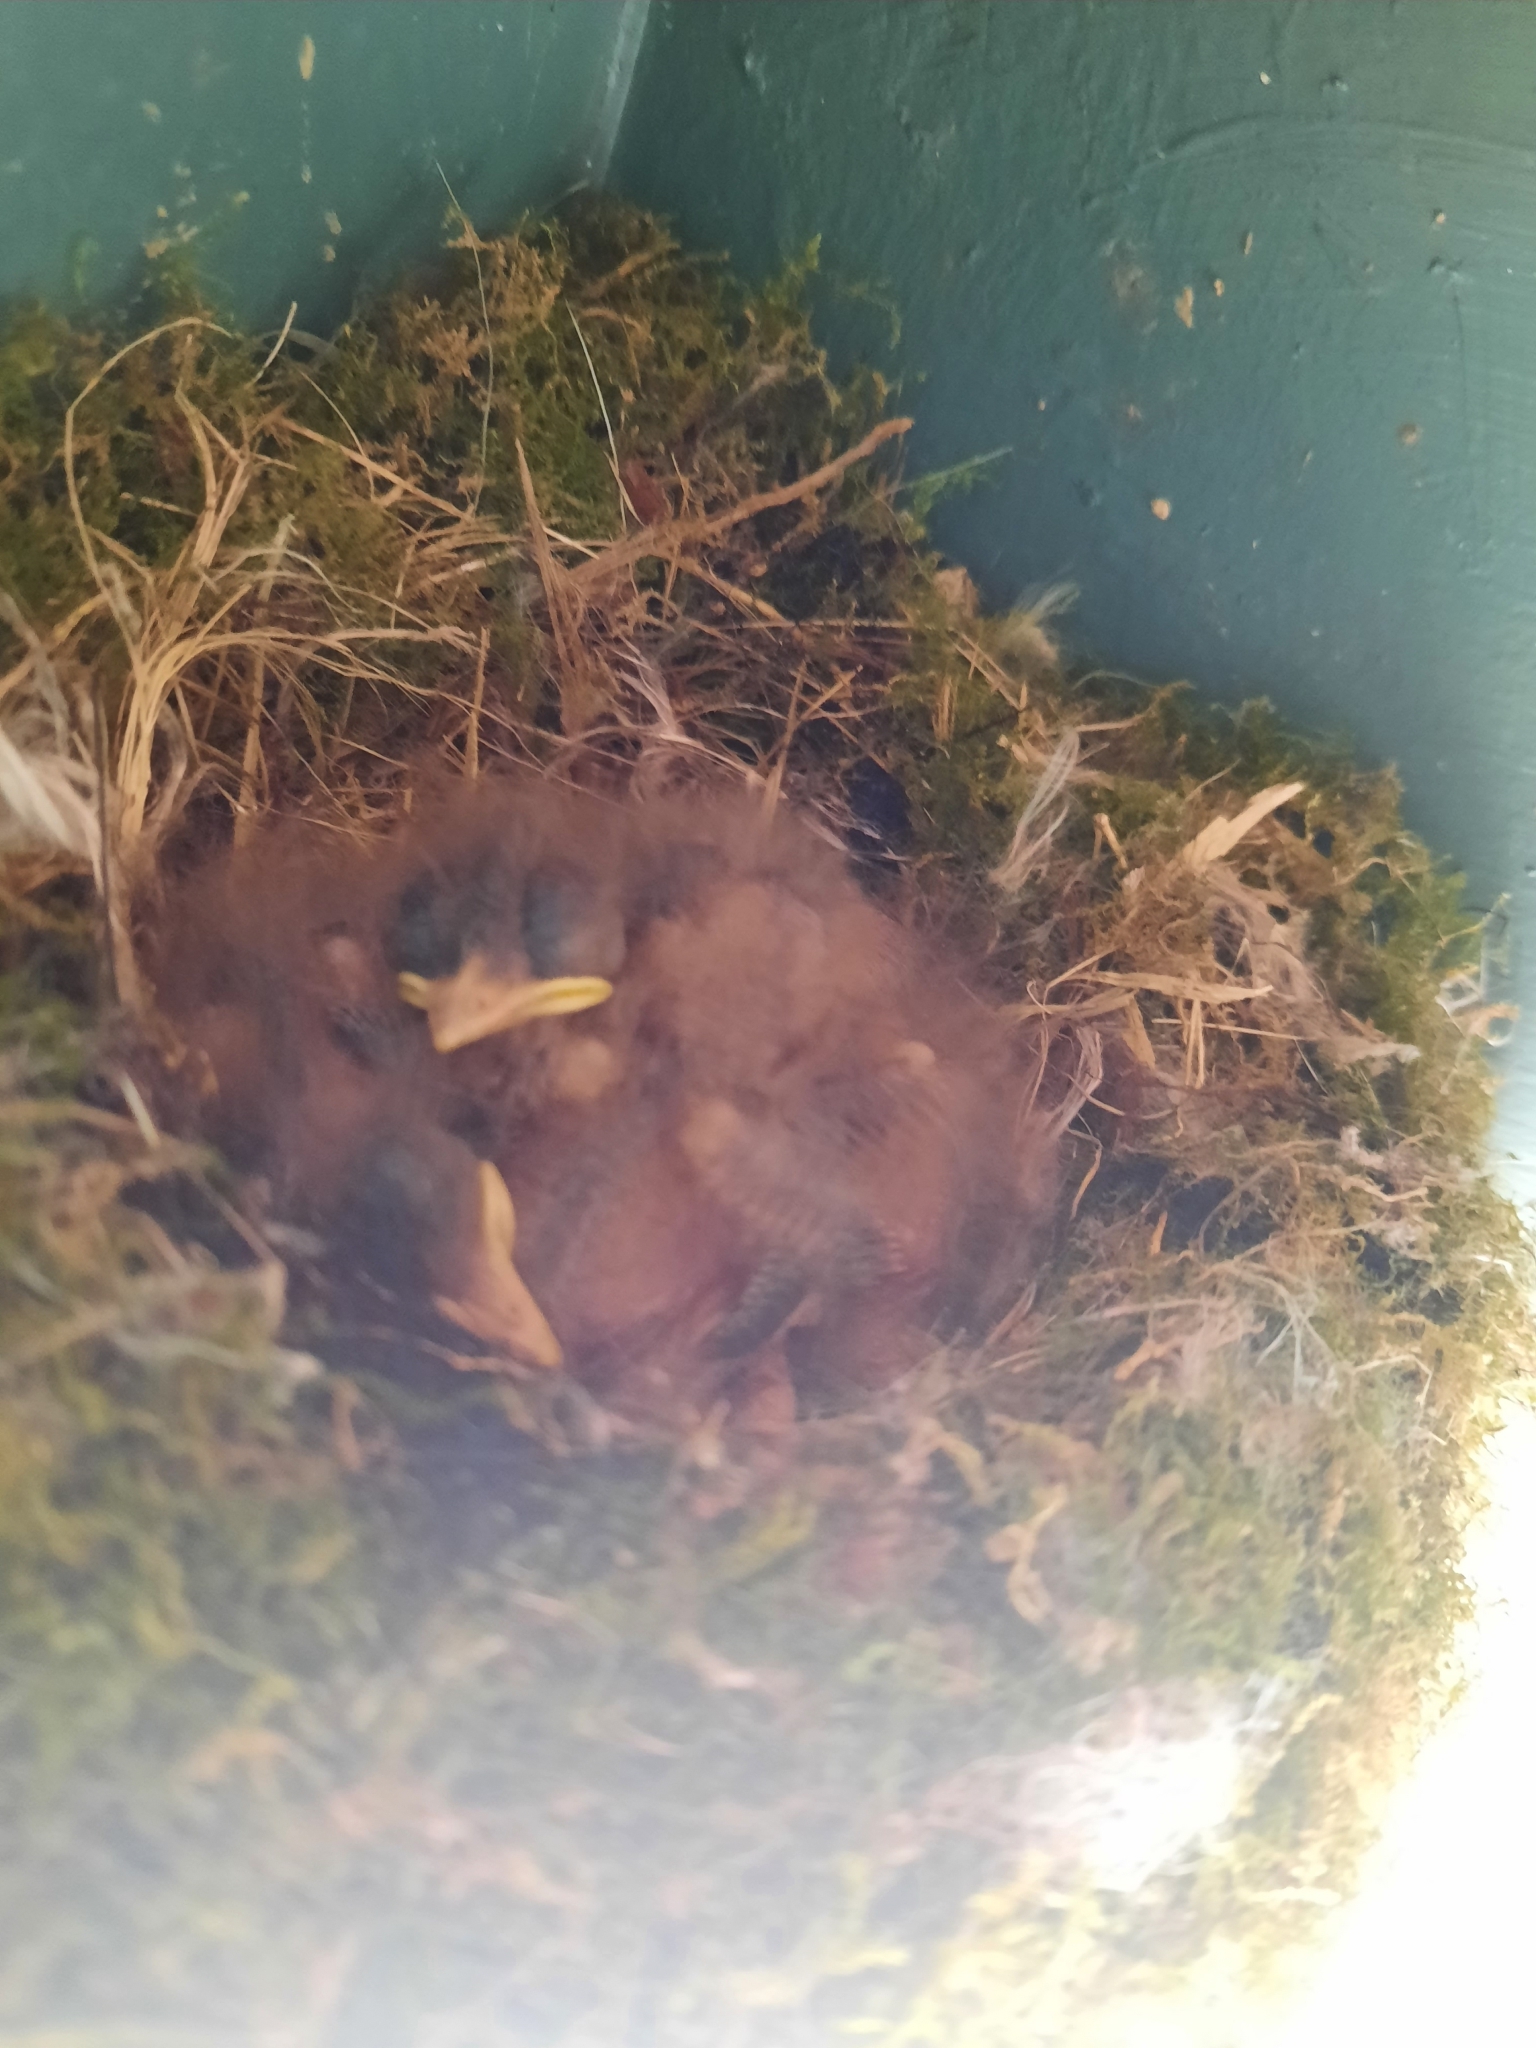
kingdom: Animalia
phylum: Chordata
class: Aves
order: Passeriformes
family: Tyrannidae
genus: Sayornis
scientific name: Sayornis phoebe
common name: Eastern phoebe
